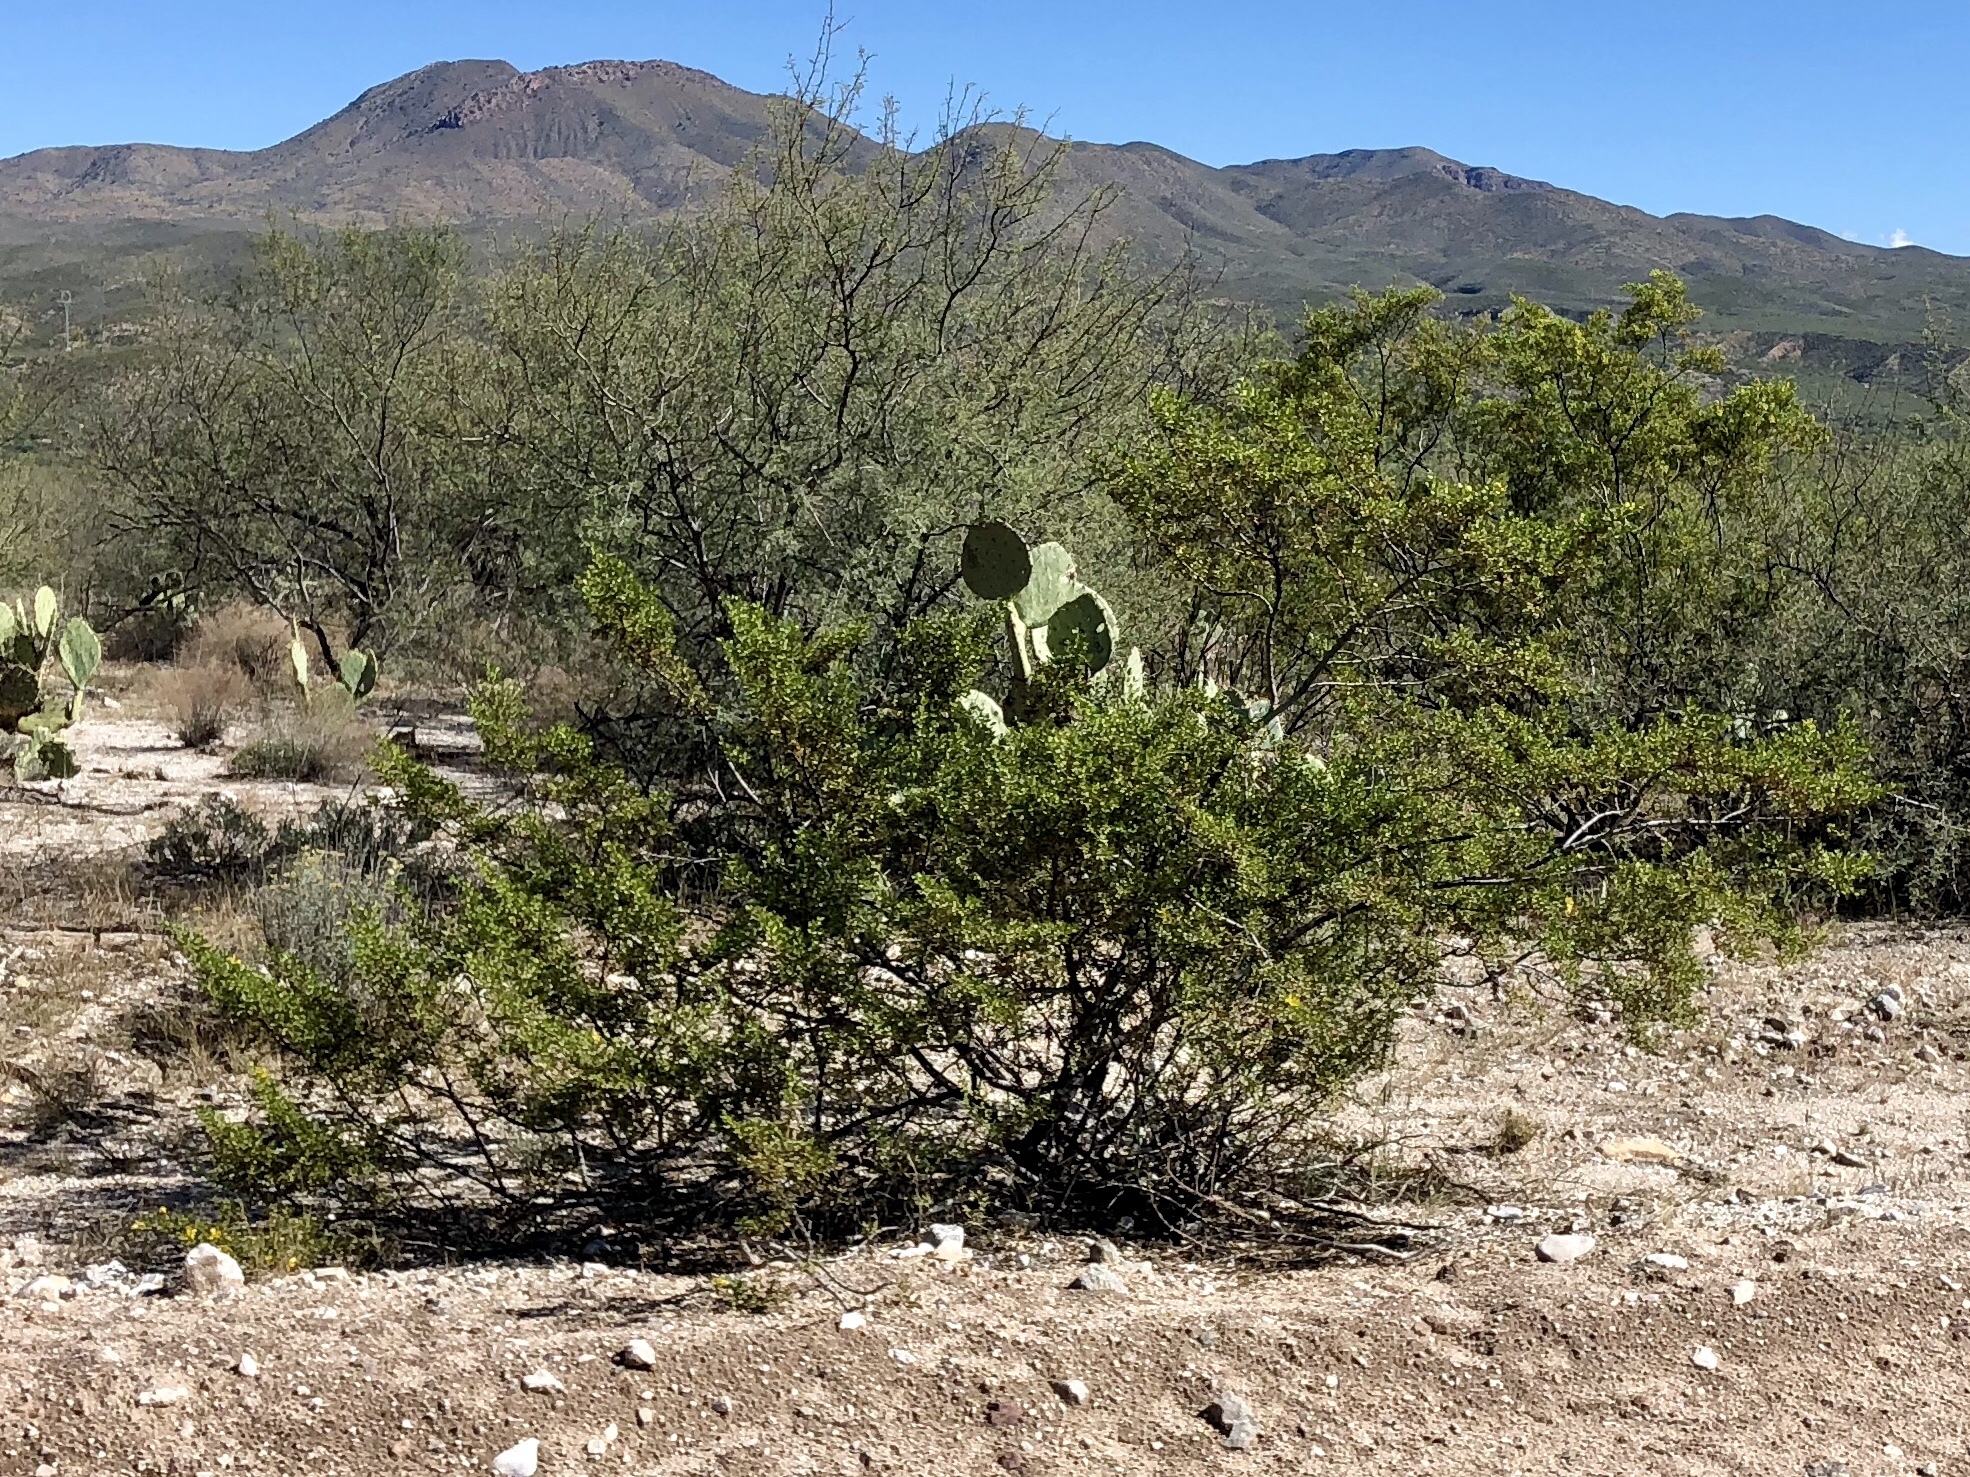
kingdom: Plantae
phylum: Tracheophyta
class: Magnoliopsida
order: Zygophyllales
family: Zygophyllaceae
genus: Larrea
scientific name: Larrea tridentata
